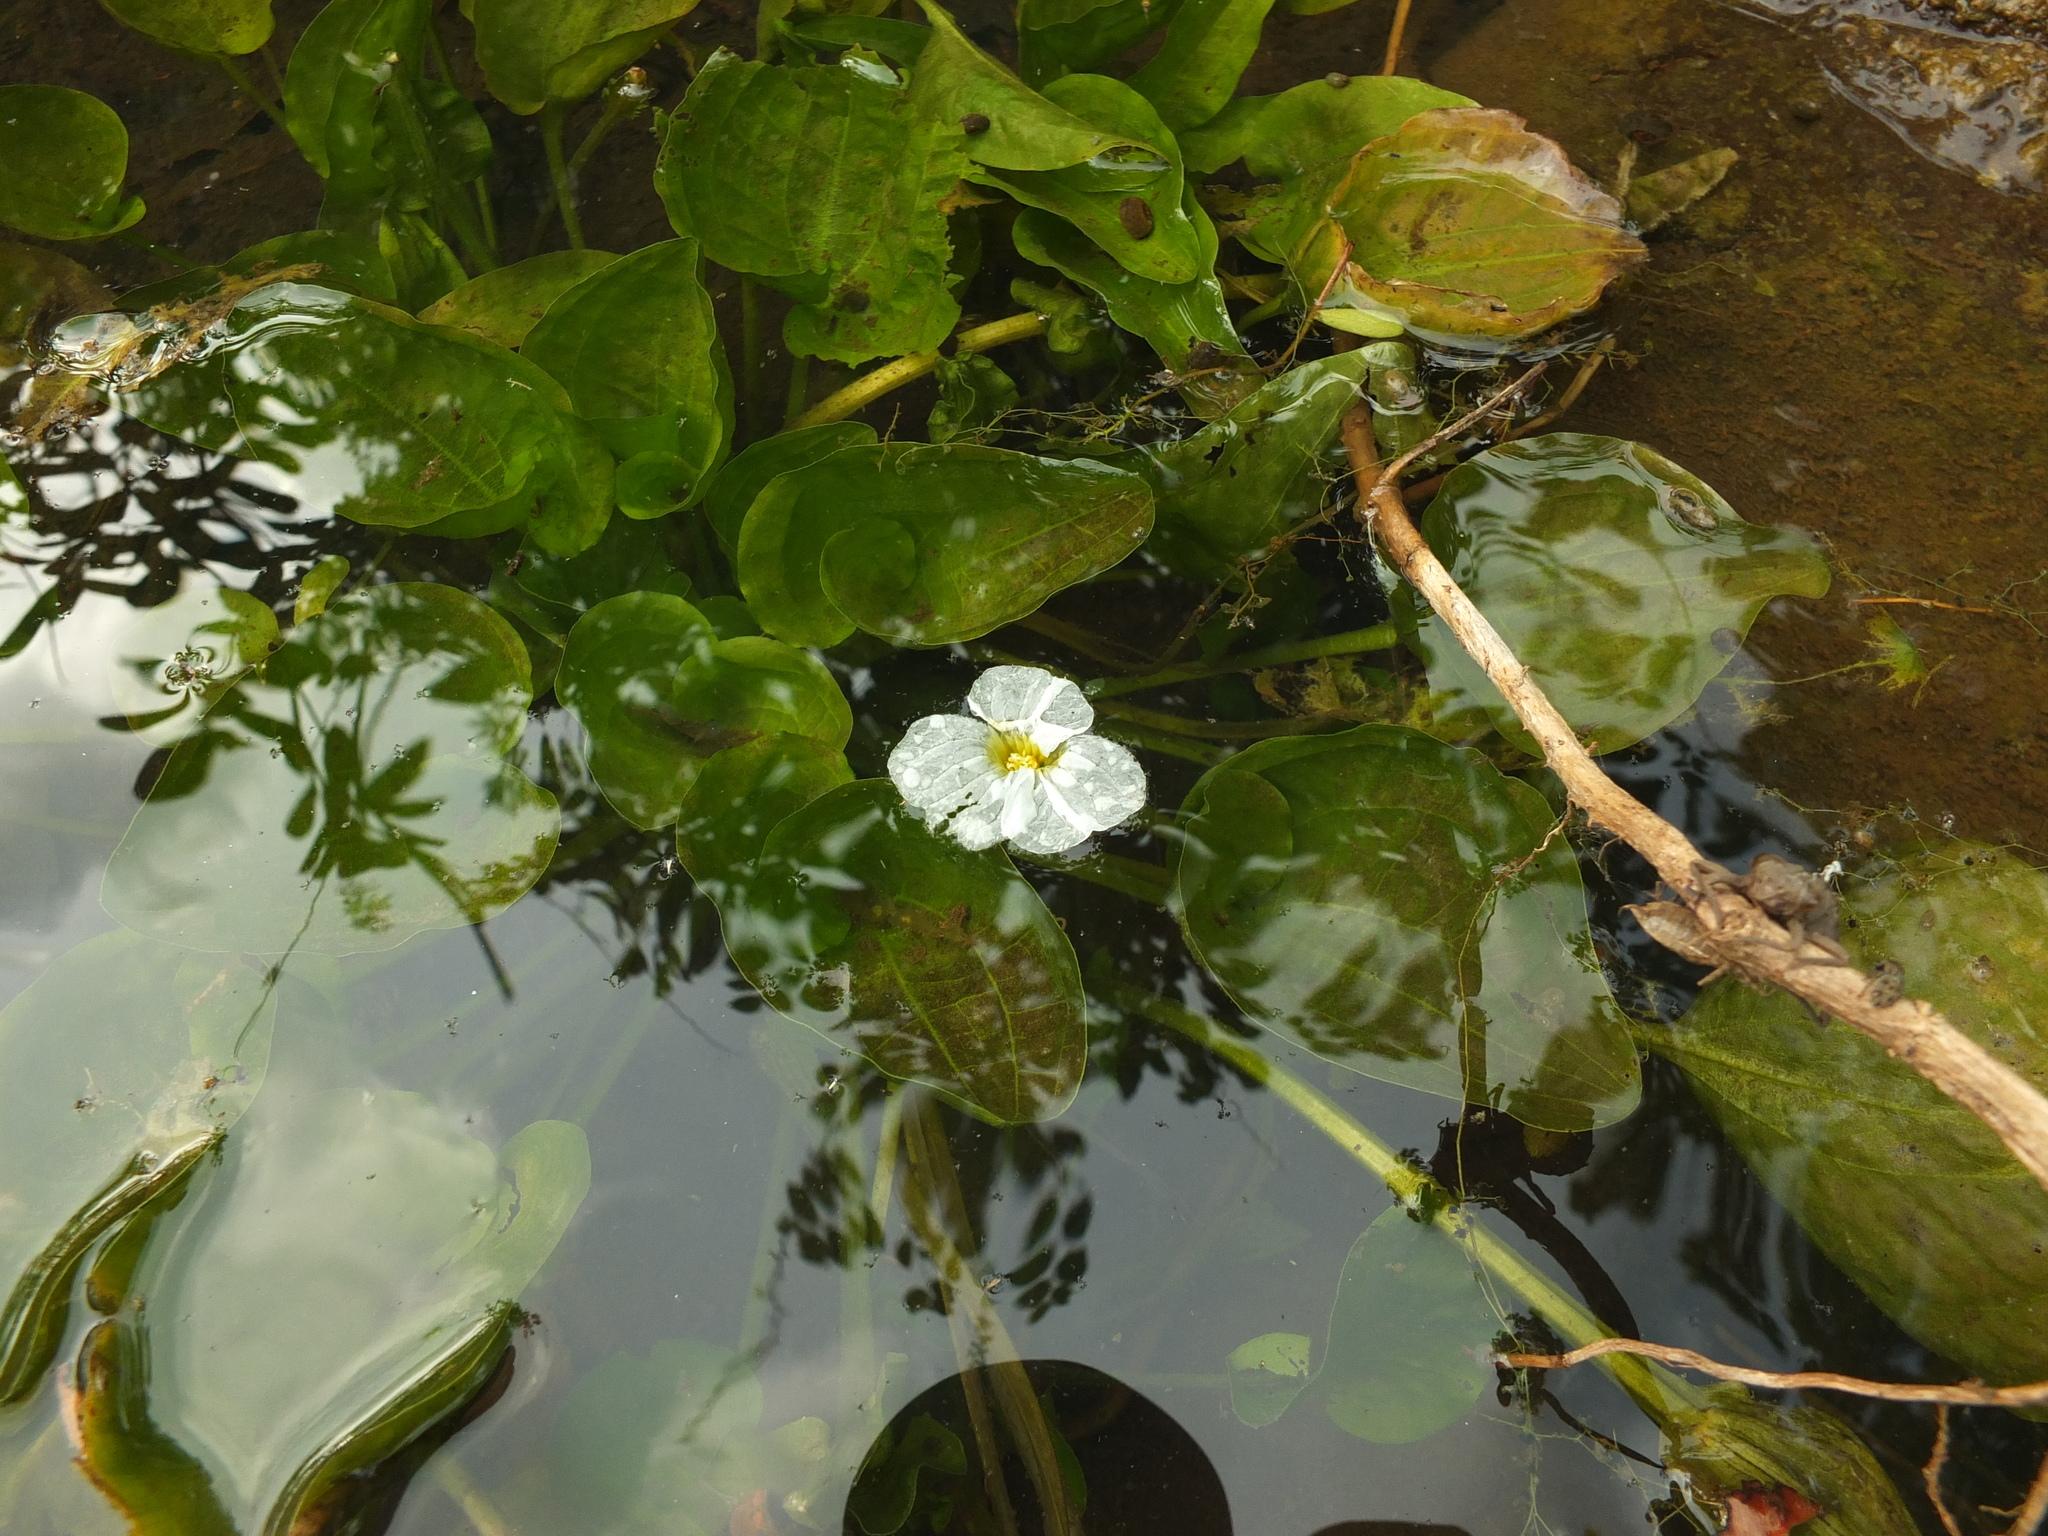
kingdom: Plantae
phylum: Tracheophyta
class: Liliopsida
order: Alismatales
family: Hydrocharitaceae
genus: Ottelia
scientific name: Ottelia alismoides
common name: Duck-lettuce
